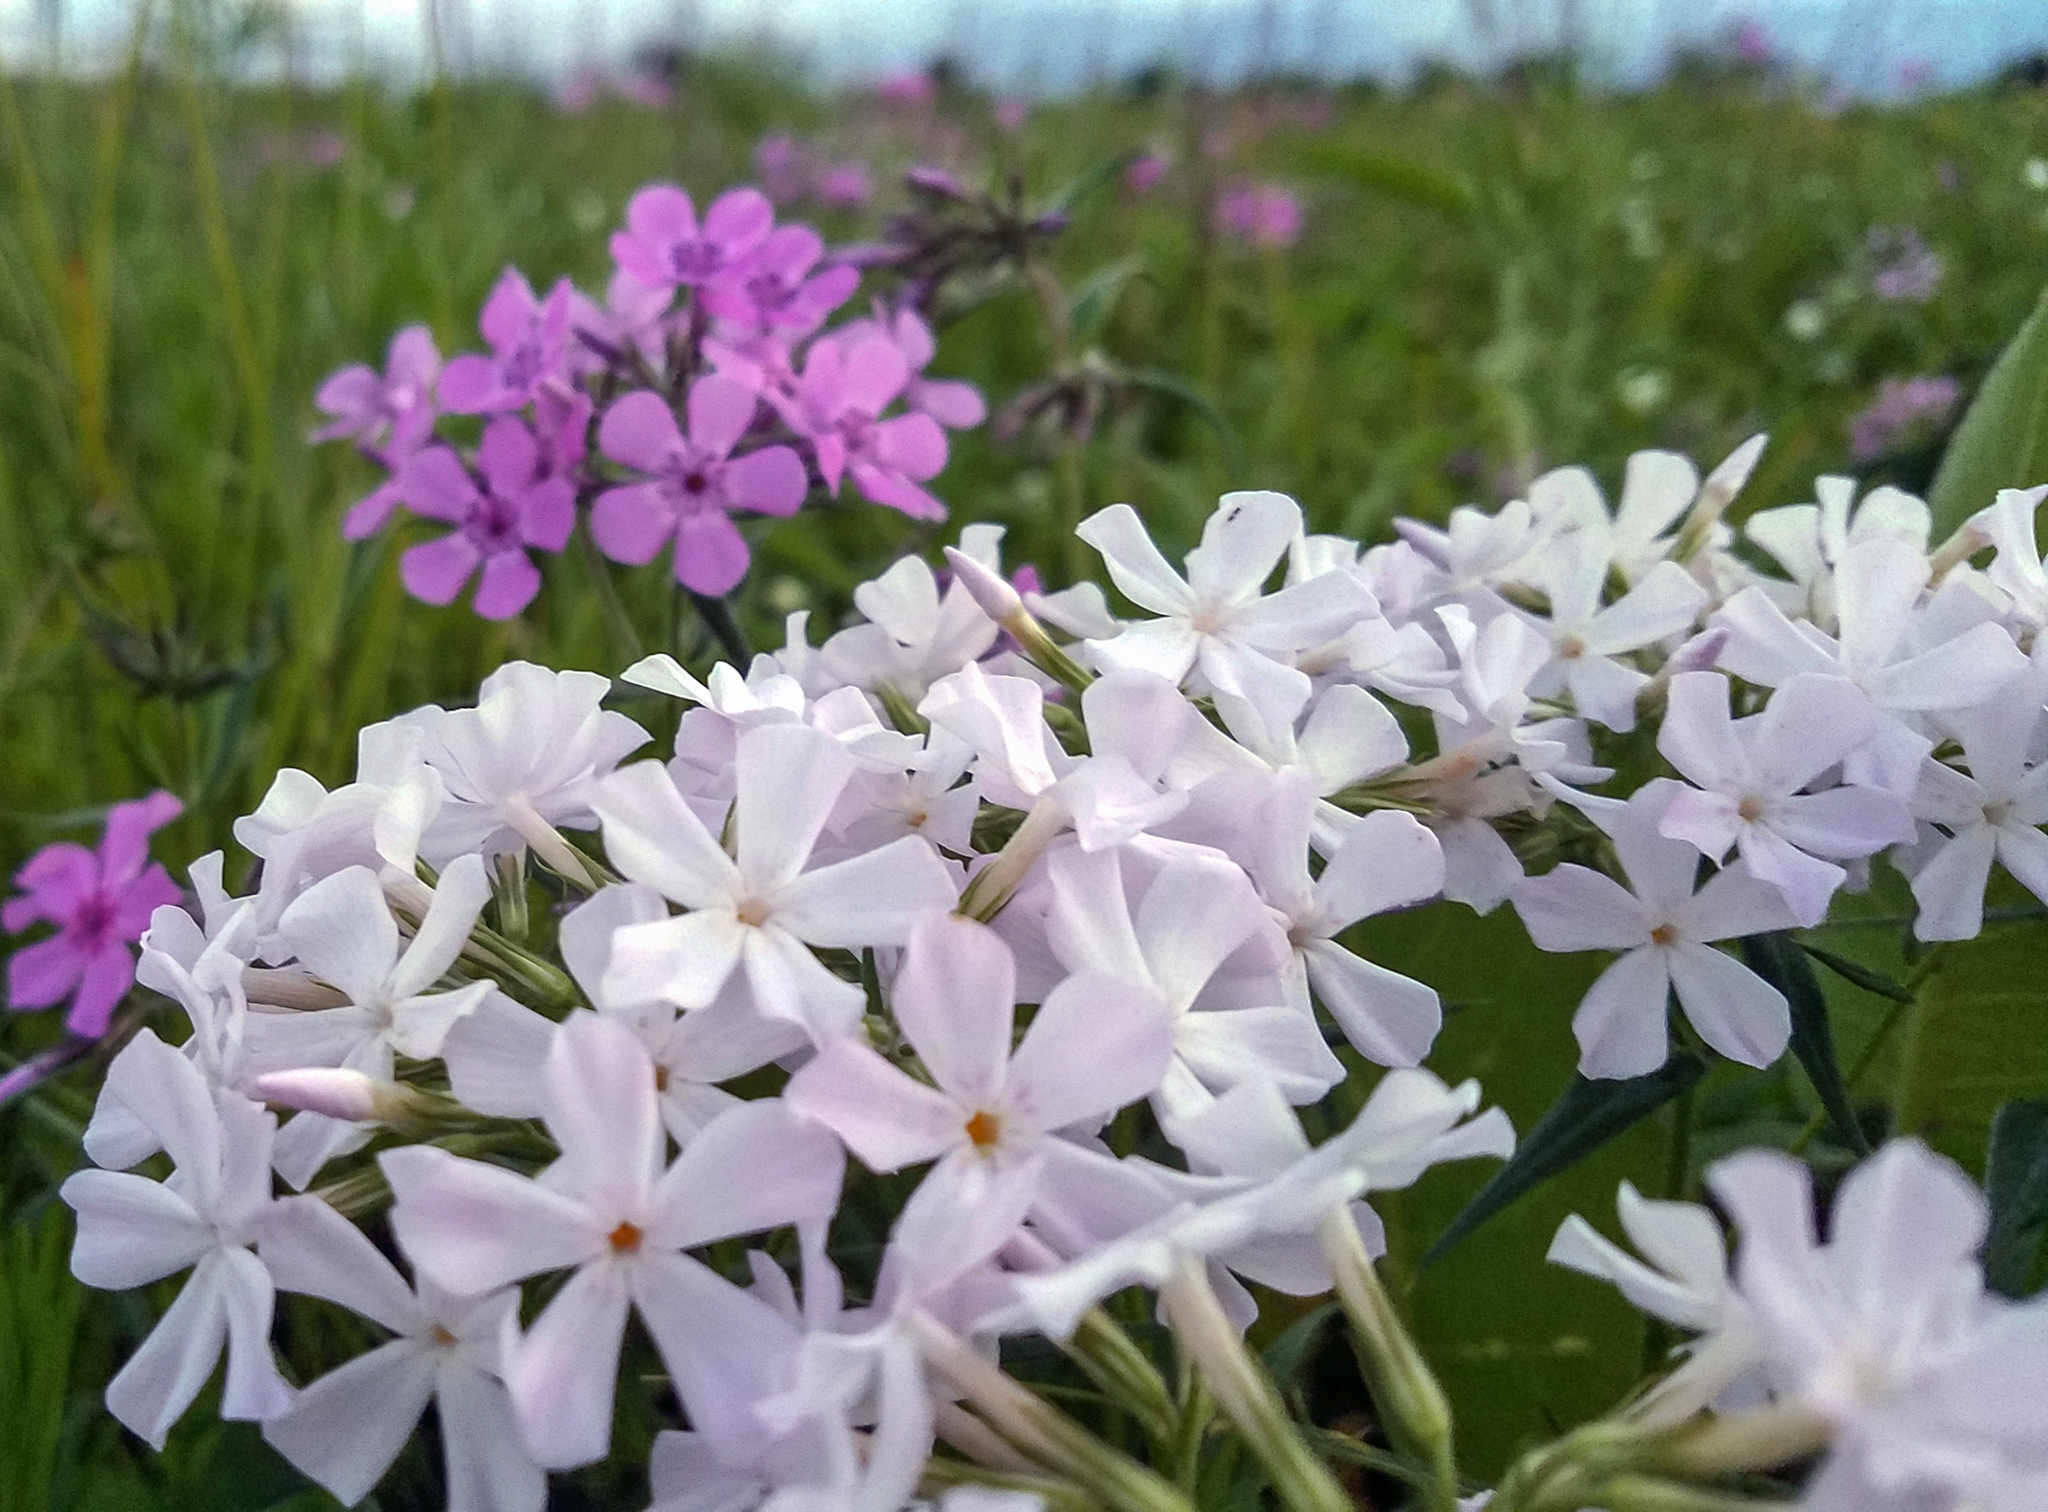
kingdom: Plantae
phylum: Tracheophyta
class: Magnoliopsida
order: Ericales
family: Polemoniaceae
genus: Phlox
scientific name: Phlox pilosa
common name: Prairie phlox
